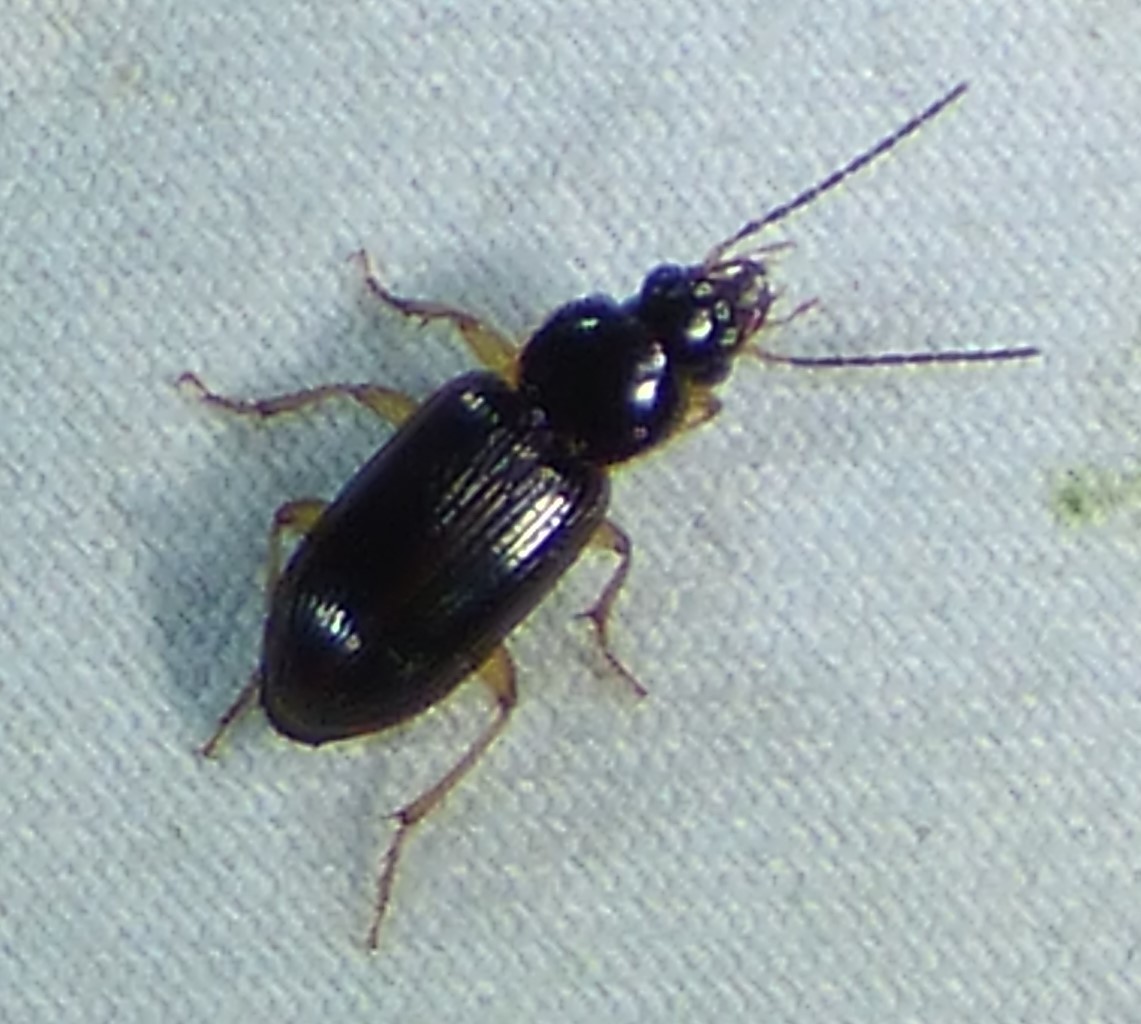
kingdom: Animalia
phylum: Arthropoda
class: Insecta
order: Coleoptera
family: Carabidae
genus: Stenolophus
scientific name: Stenolophus ochropezus
